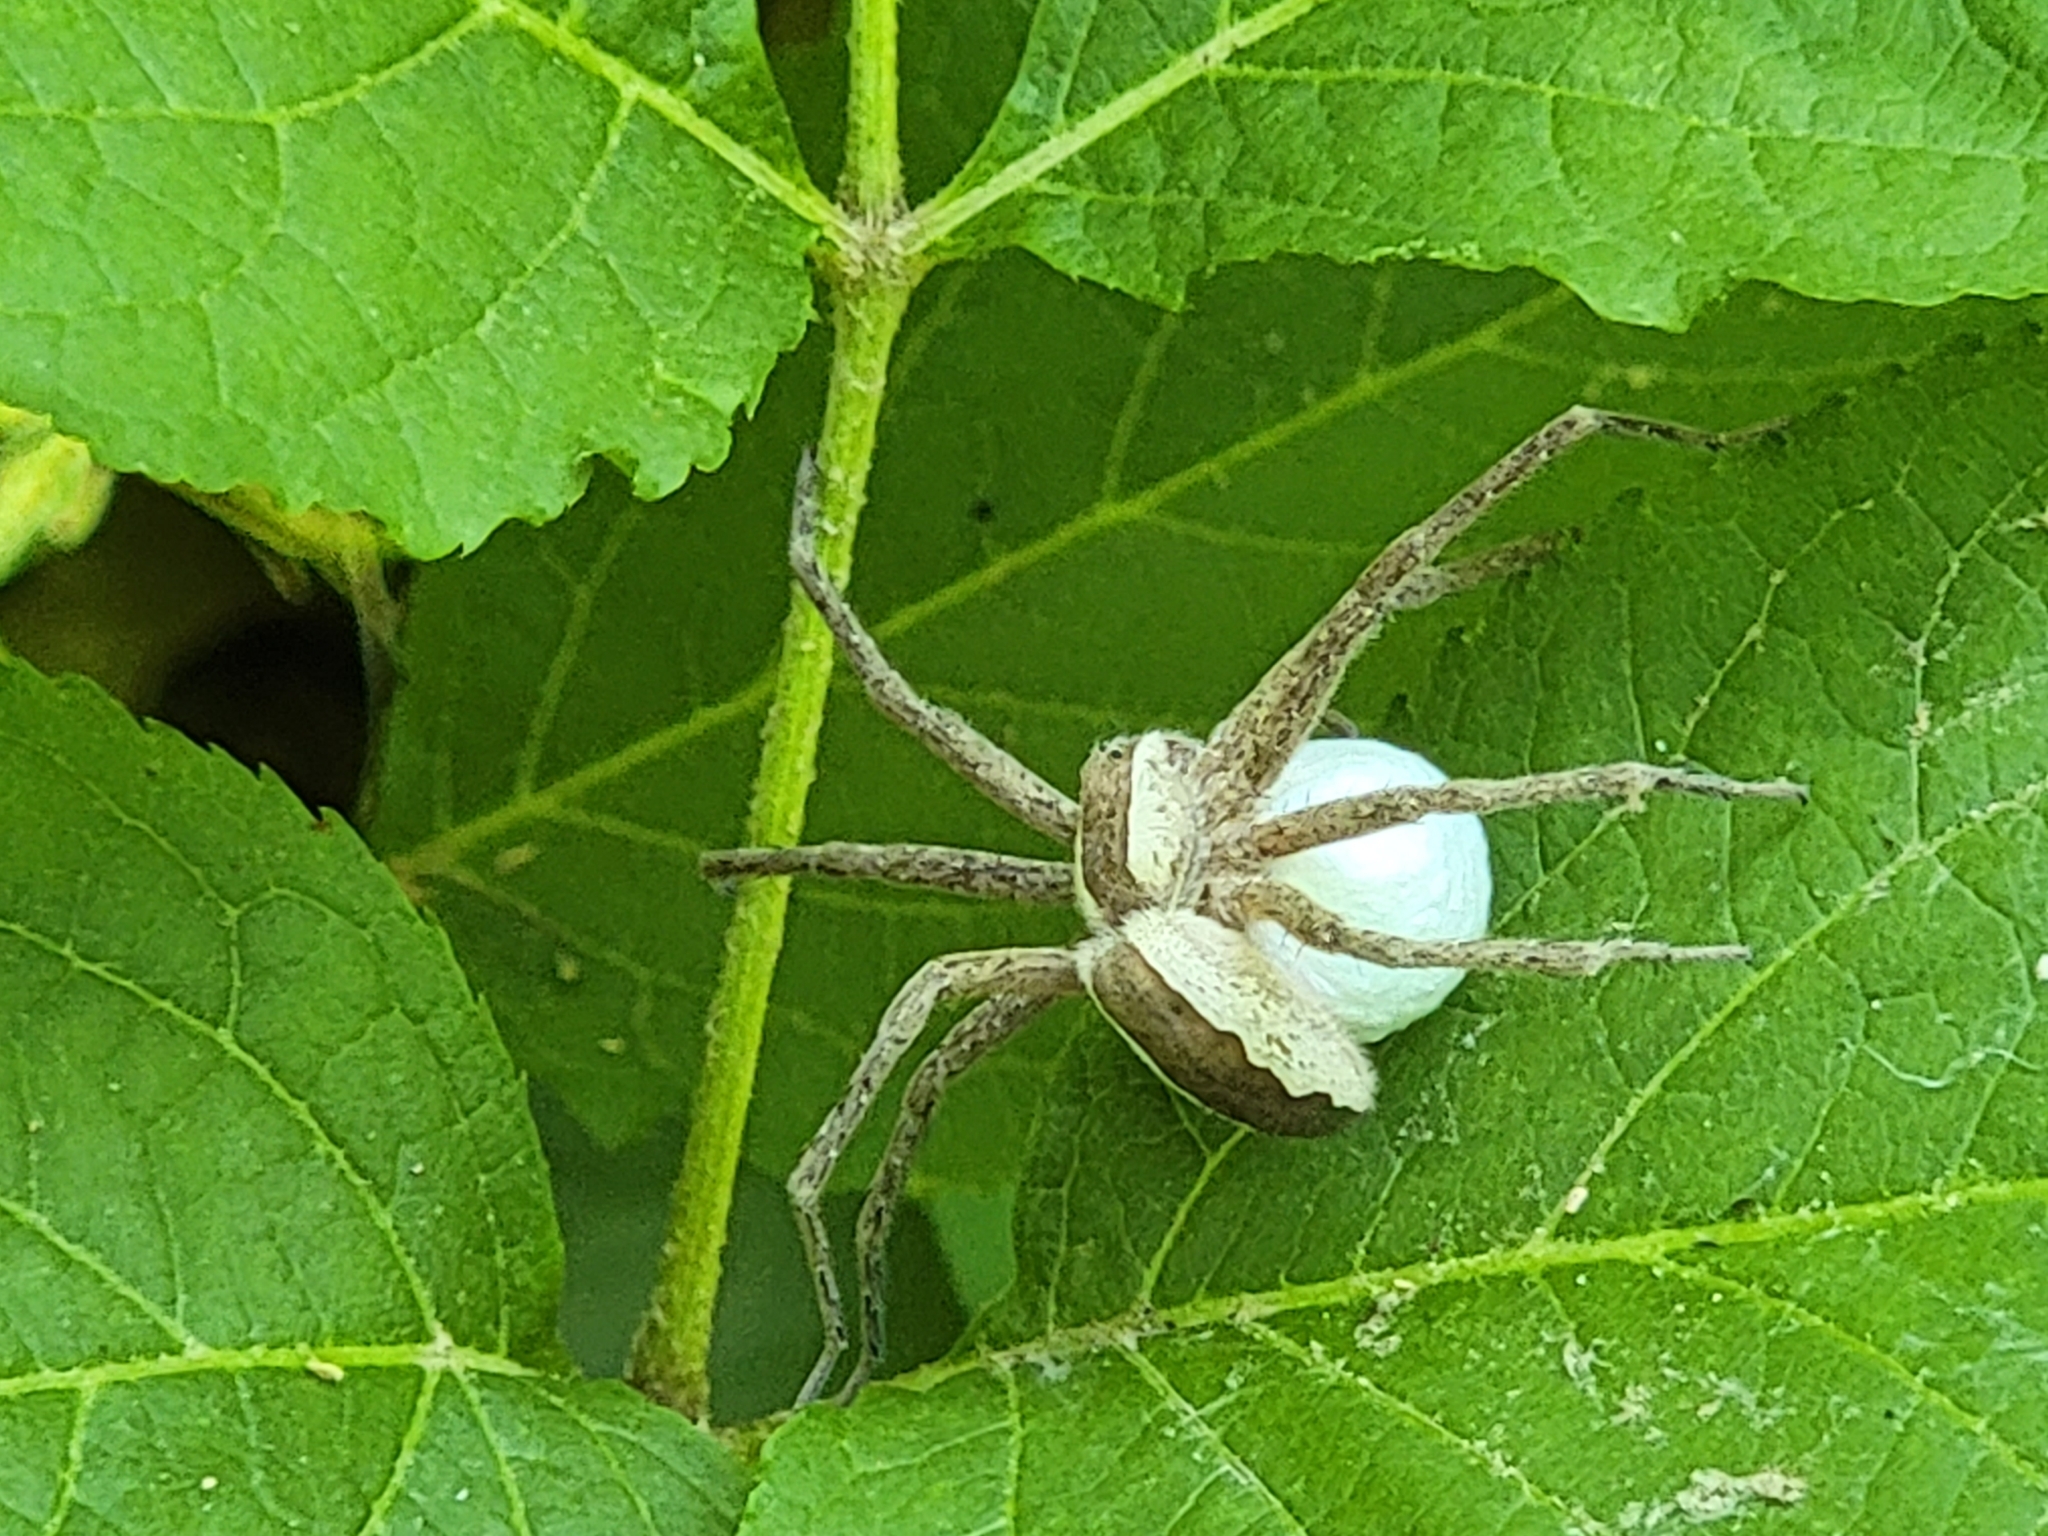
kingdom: Animalia
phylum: Arthropoda
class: Arachnida
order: Araneae
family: Pisauridae
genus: Pisaurina
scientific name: Pisaurina mira
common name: American nursery web spider
